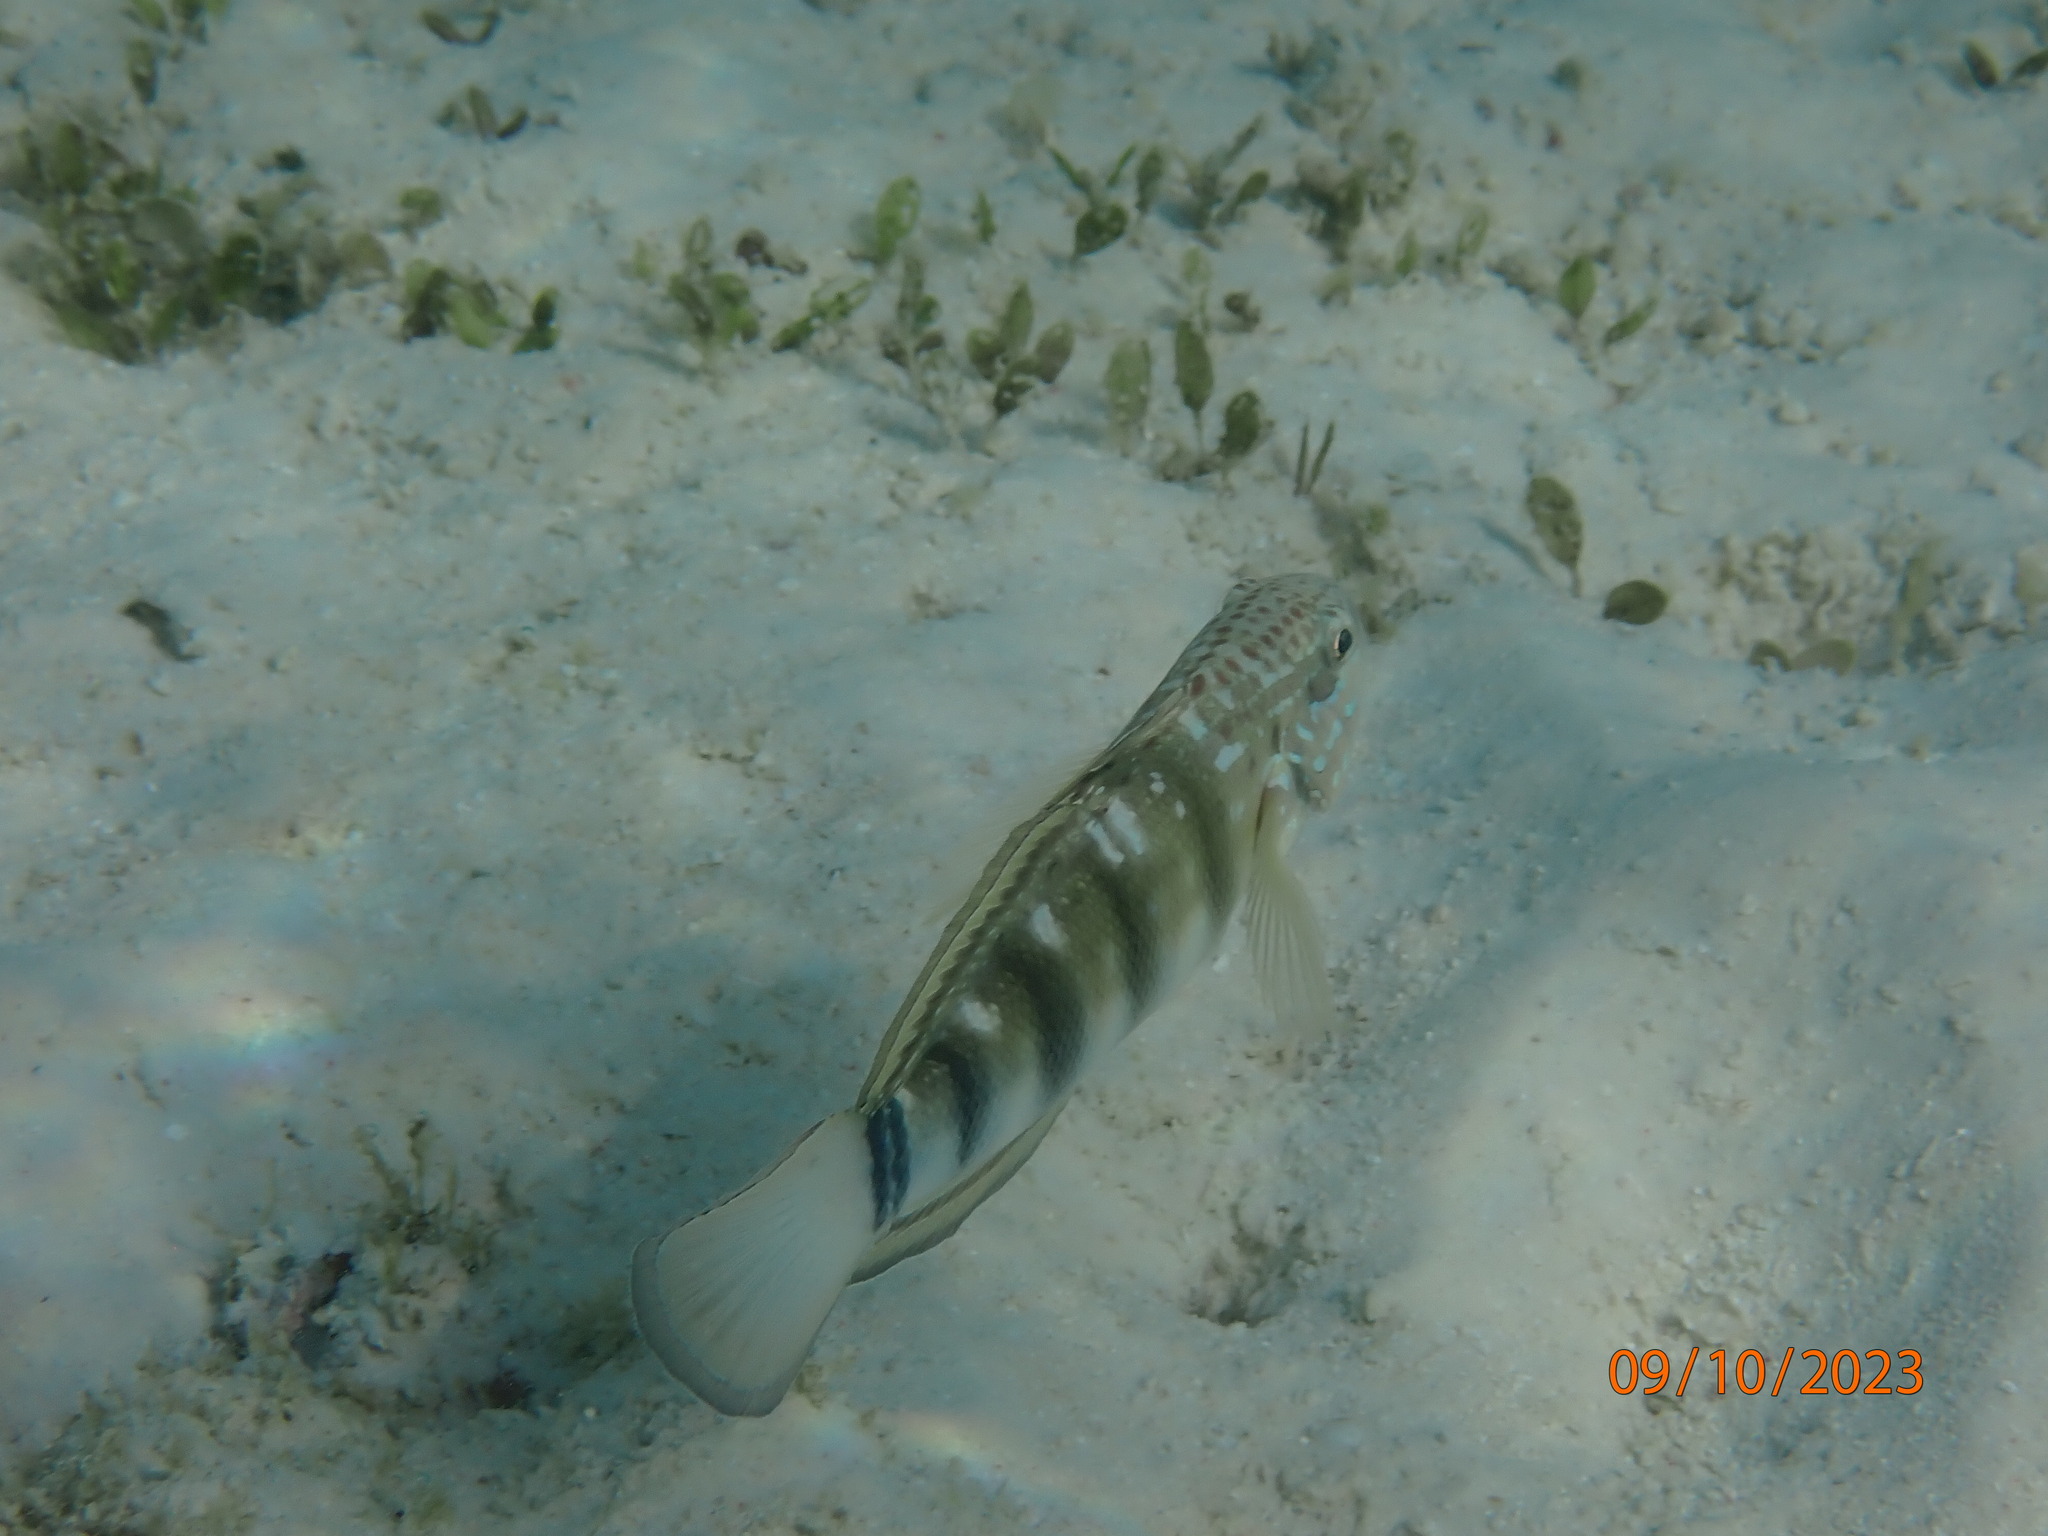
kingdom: Animalia
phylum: Chordata
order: Perciformes
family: Gobiidae
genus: Amblygobius
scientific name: Amblygobius phalaena
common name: Banded goby
